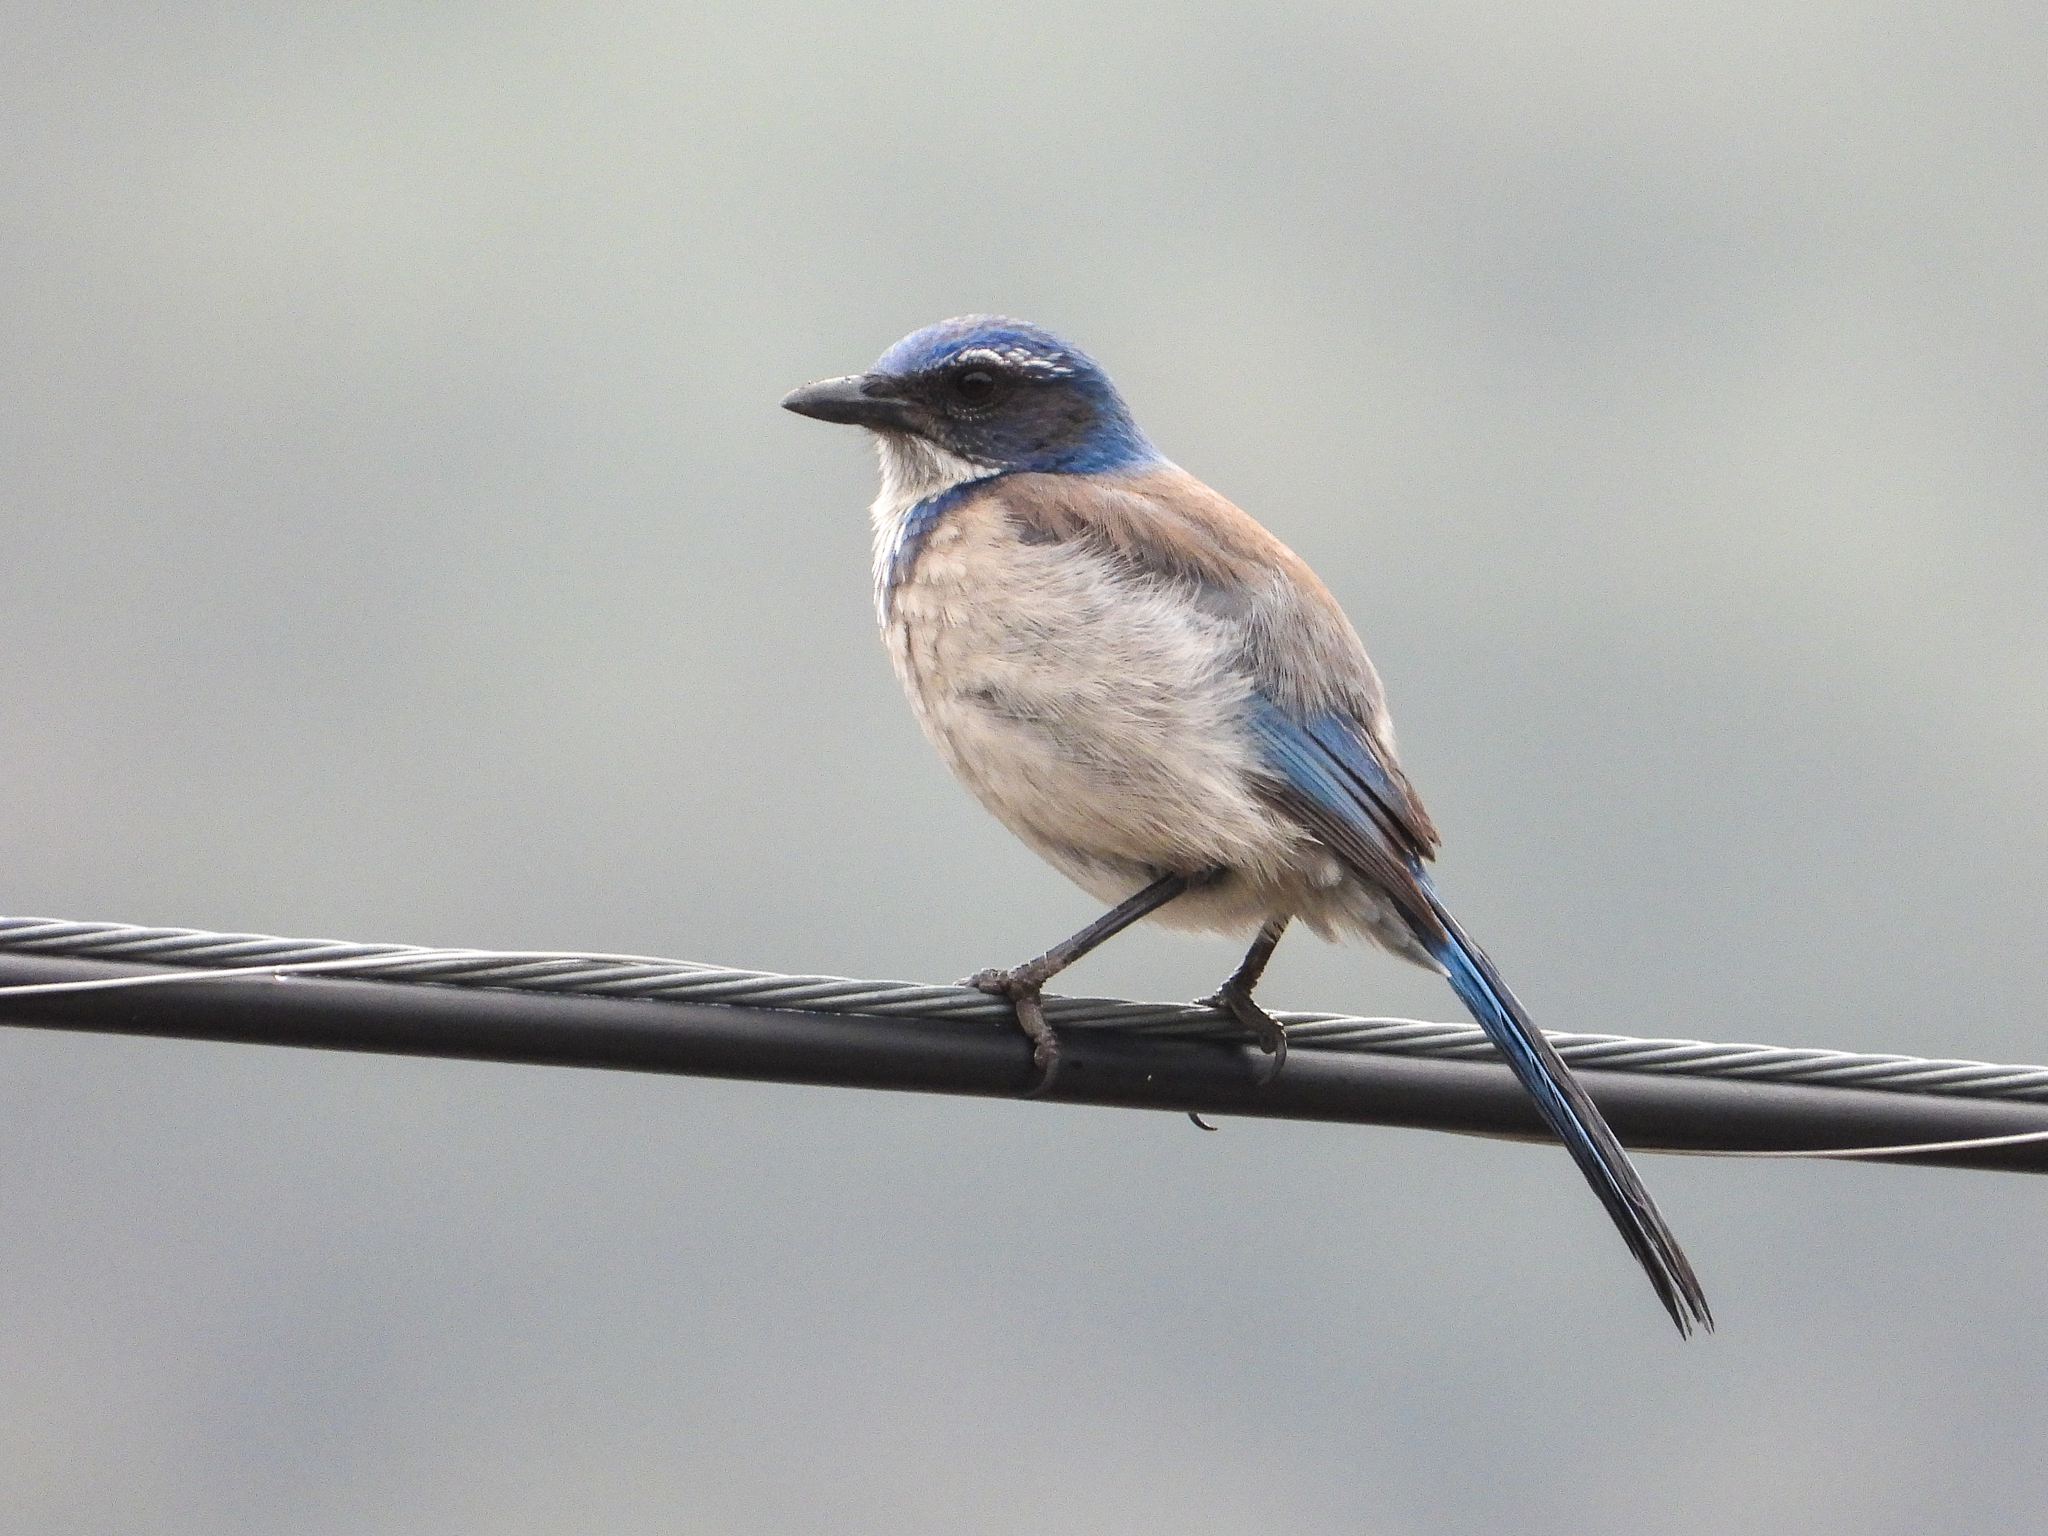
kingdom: Animalia
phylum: Chordata
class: Aves
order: Passeriformes
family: Corvidae
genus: Aphelocoma
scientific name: Aphelocoma californica
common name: California scrub-jay
